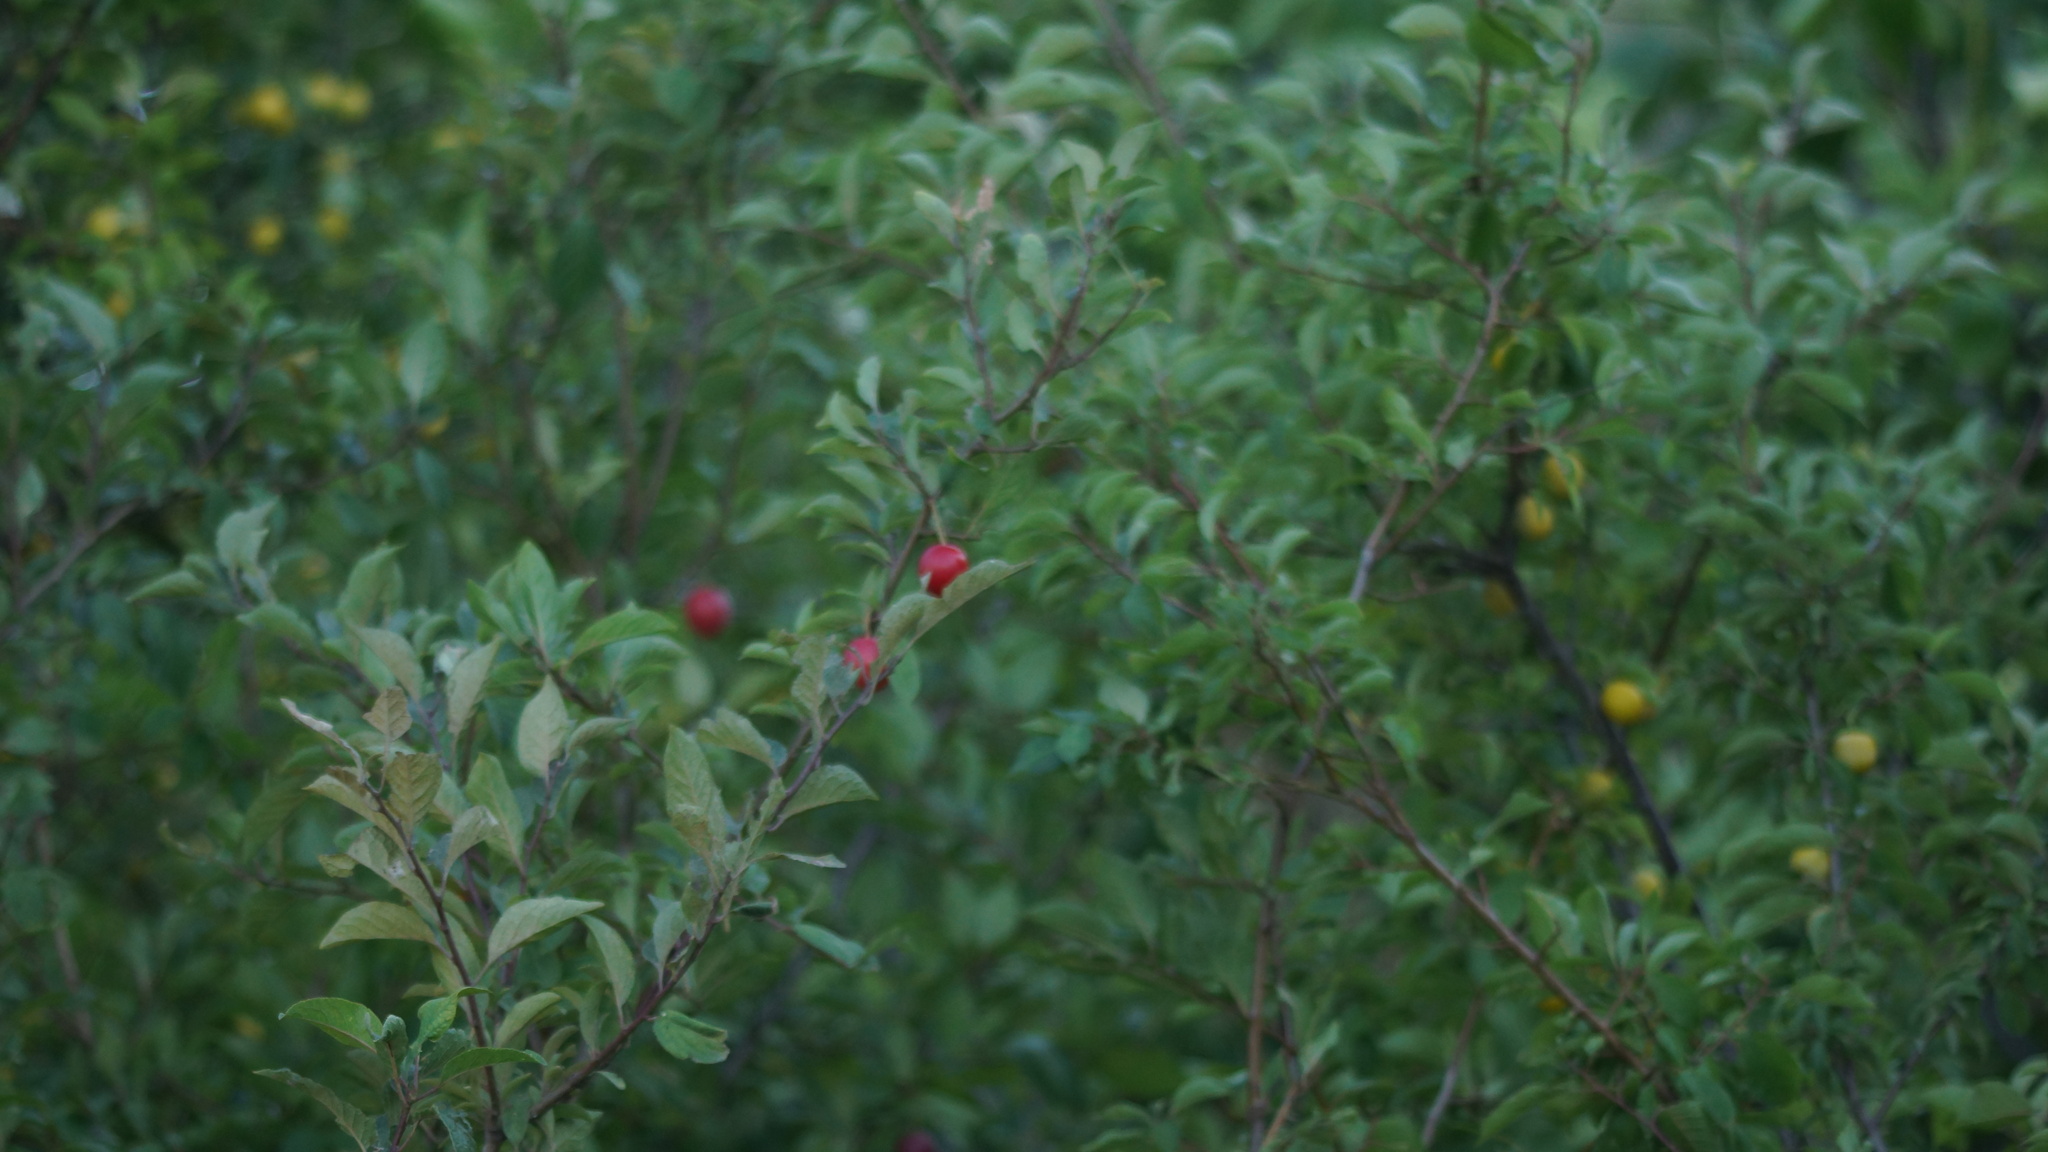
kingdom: Plantae
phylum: Tracheophyta
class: Magnoliopsida
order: Rosales
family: Rosaceae
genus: Prunus
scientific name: Prunus cerasifera
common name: Cherry plum
